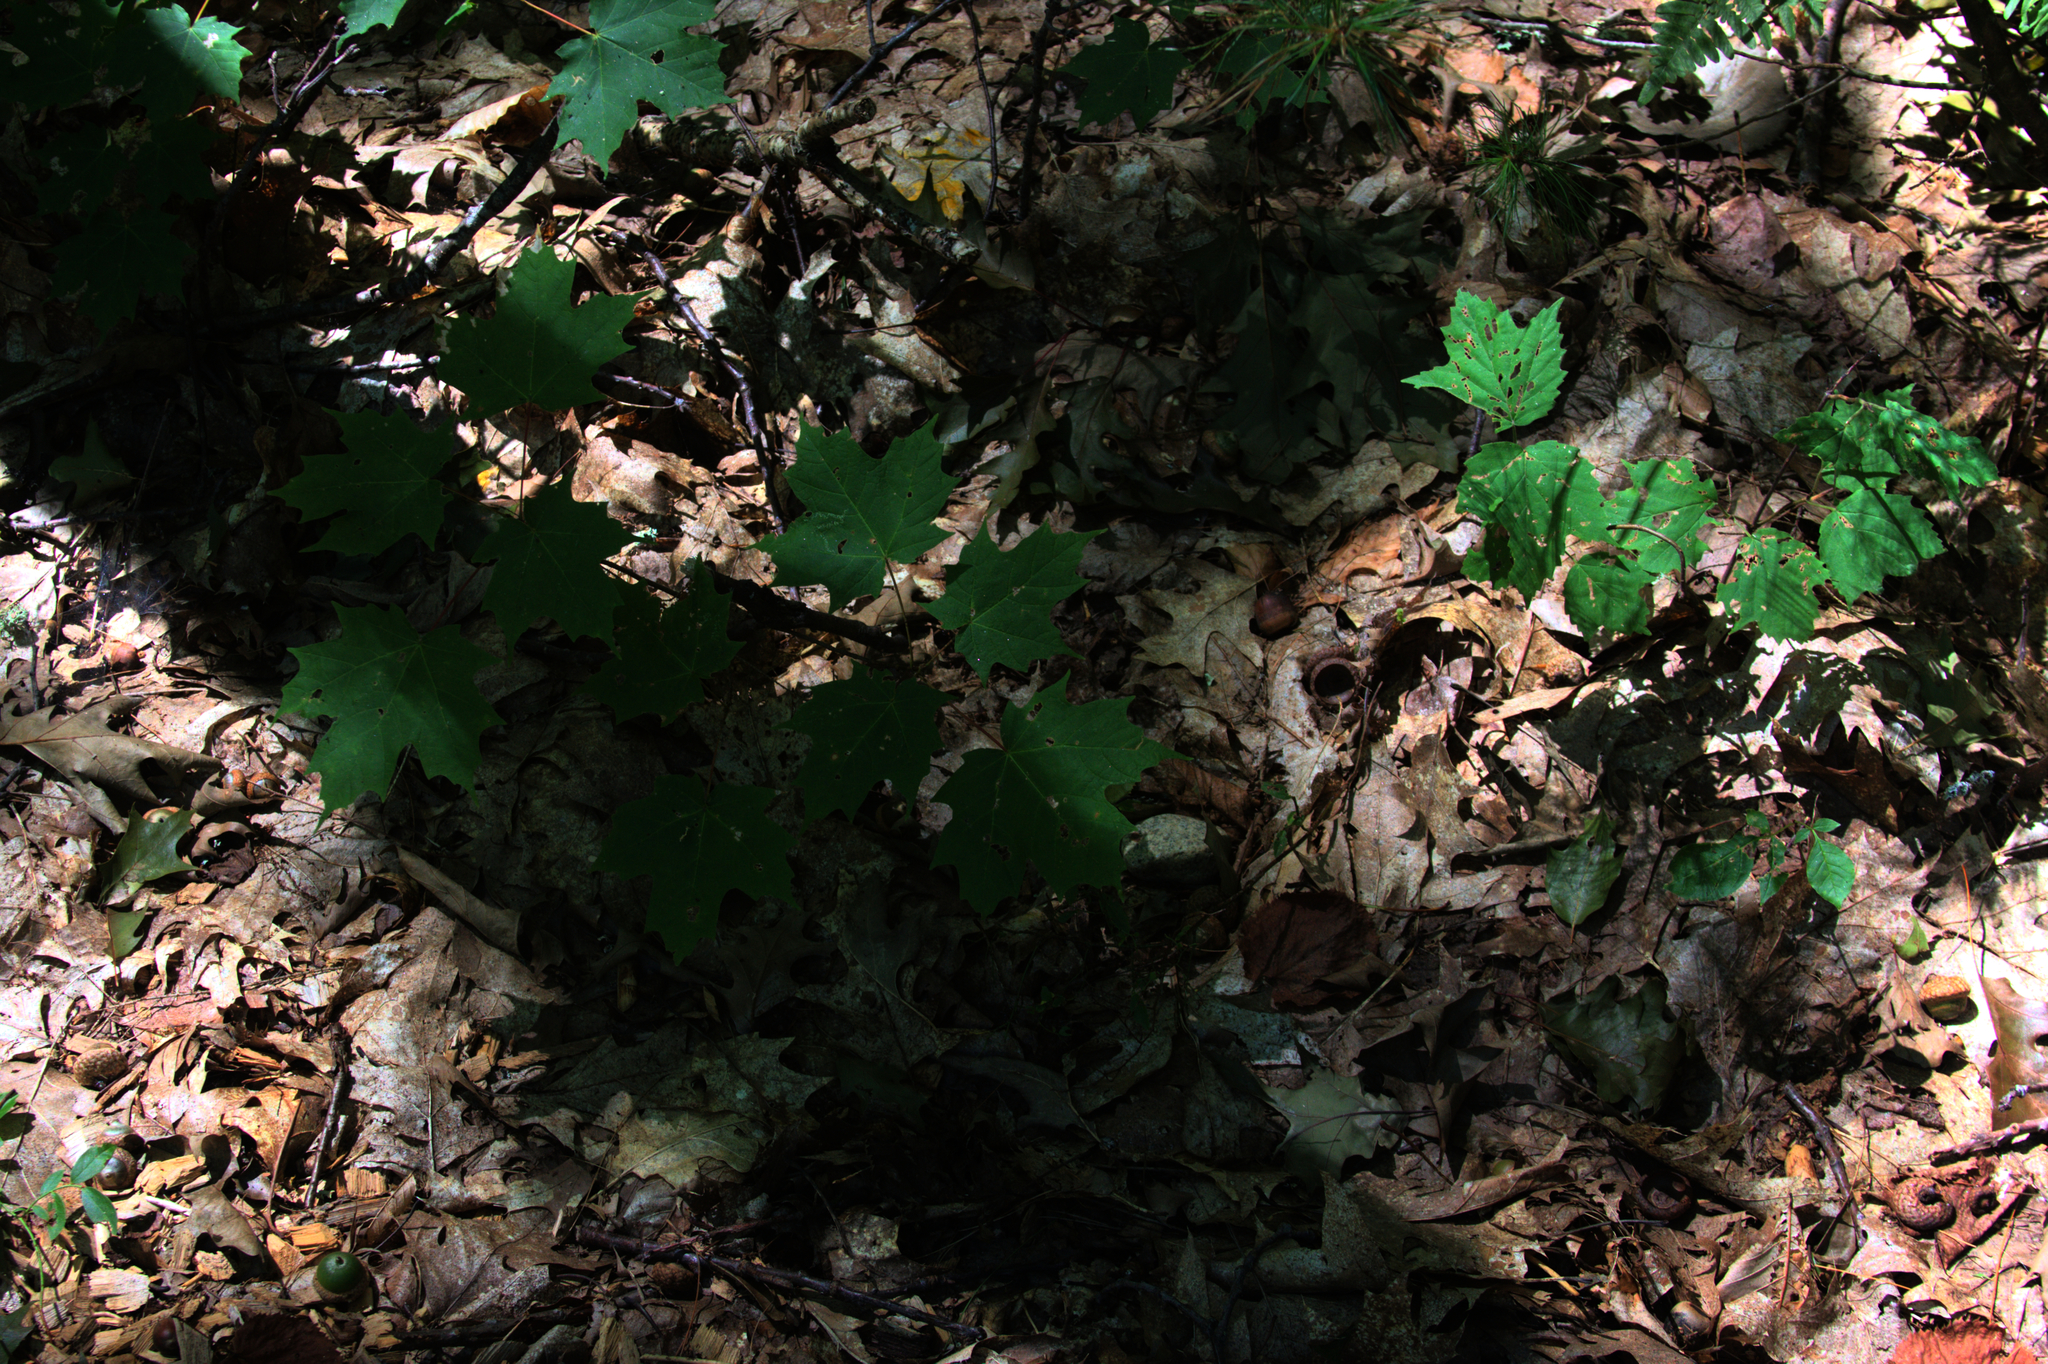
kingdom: Plantae
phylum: Tracheophyta
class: Magnoliopsida
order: Sapindales
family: Sapindaceae
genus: Acer
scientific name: Acer saccharum
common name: Sugar maple
